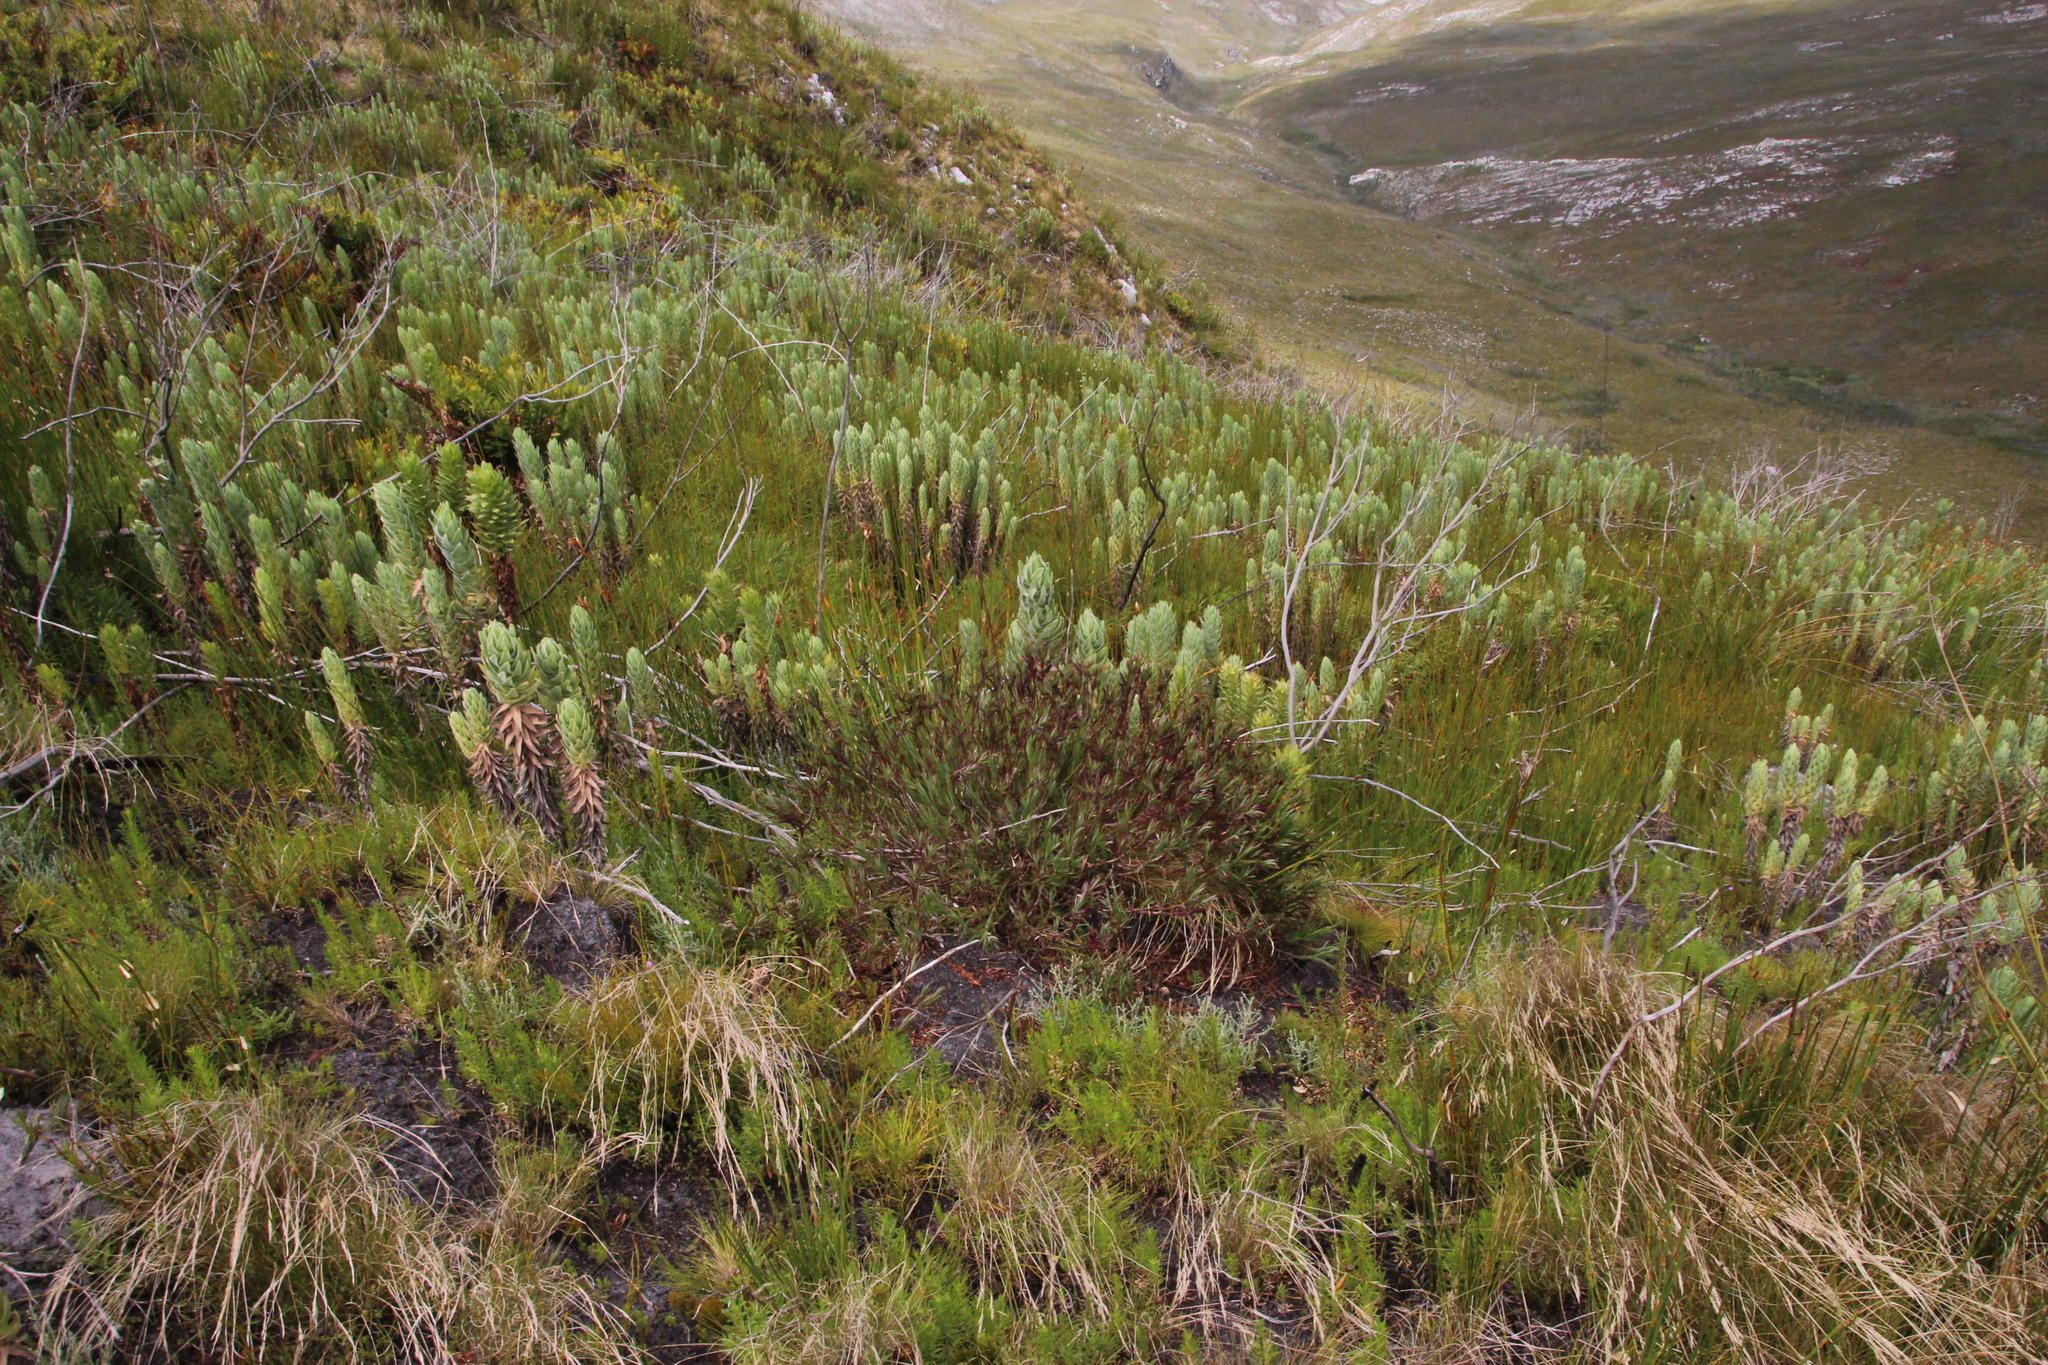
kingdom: Plantae
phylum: Tracheophyta
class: Magnoliopsida
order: Rosales
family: Rosaceae
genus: Cliffortia
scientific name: Cliffortia graminea
